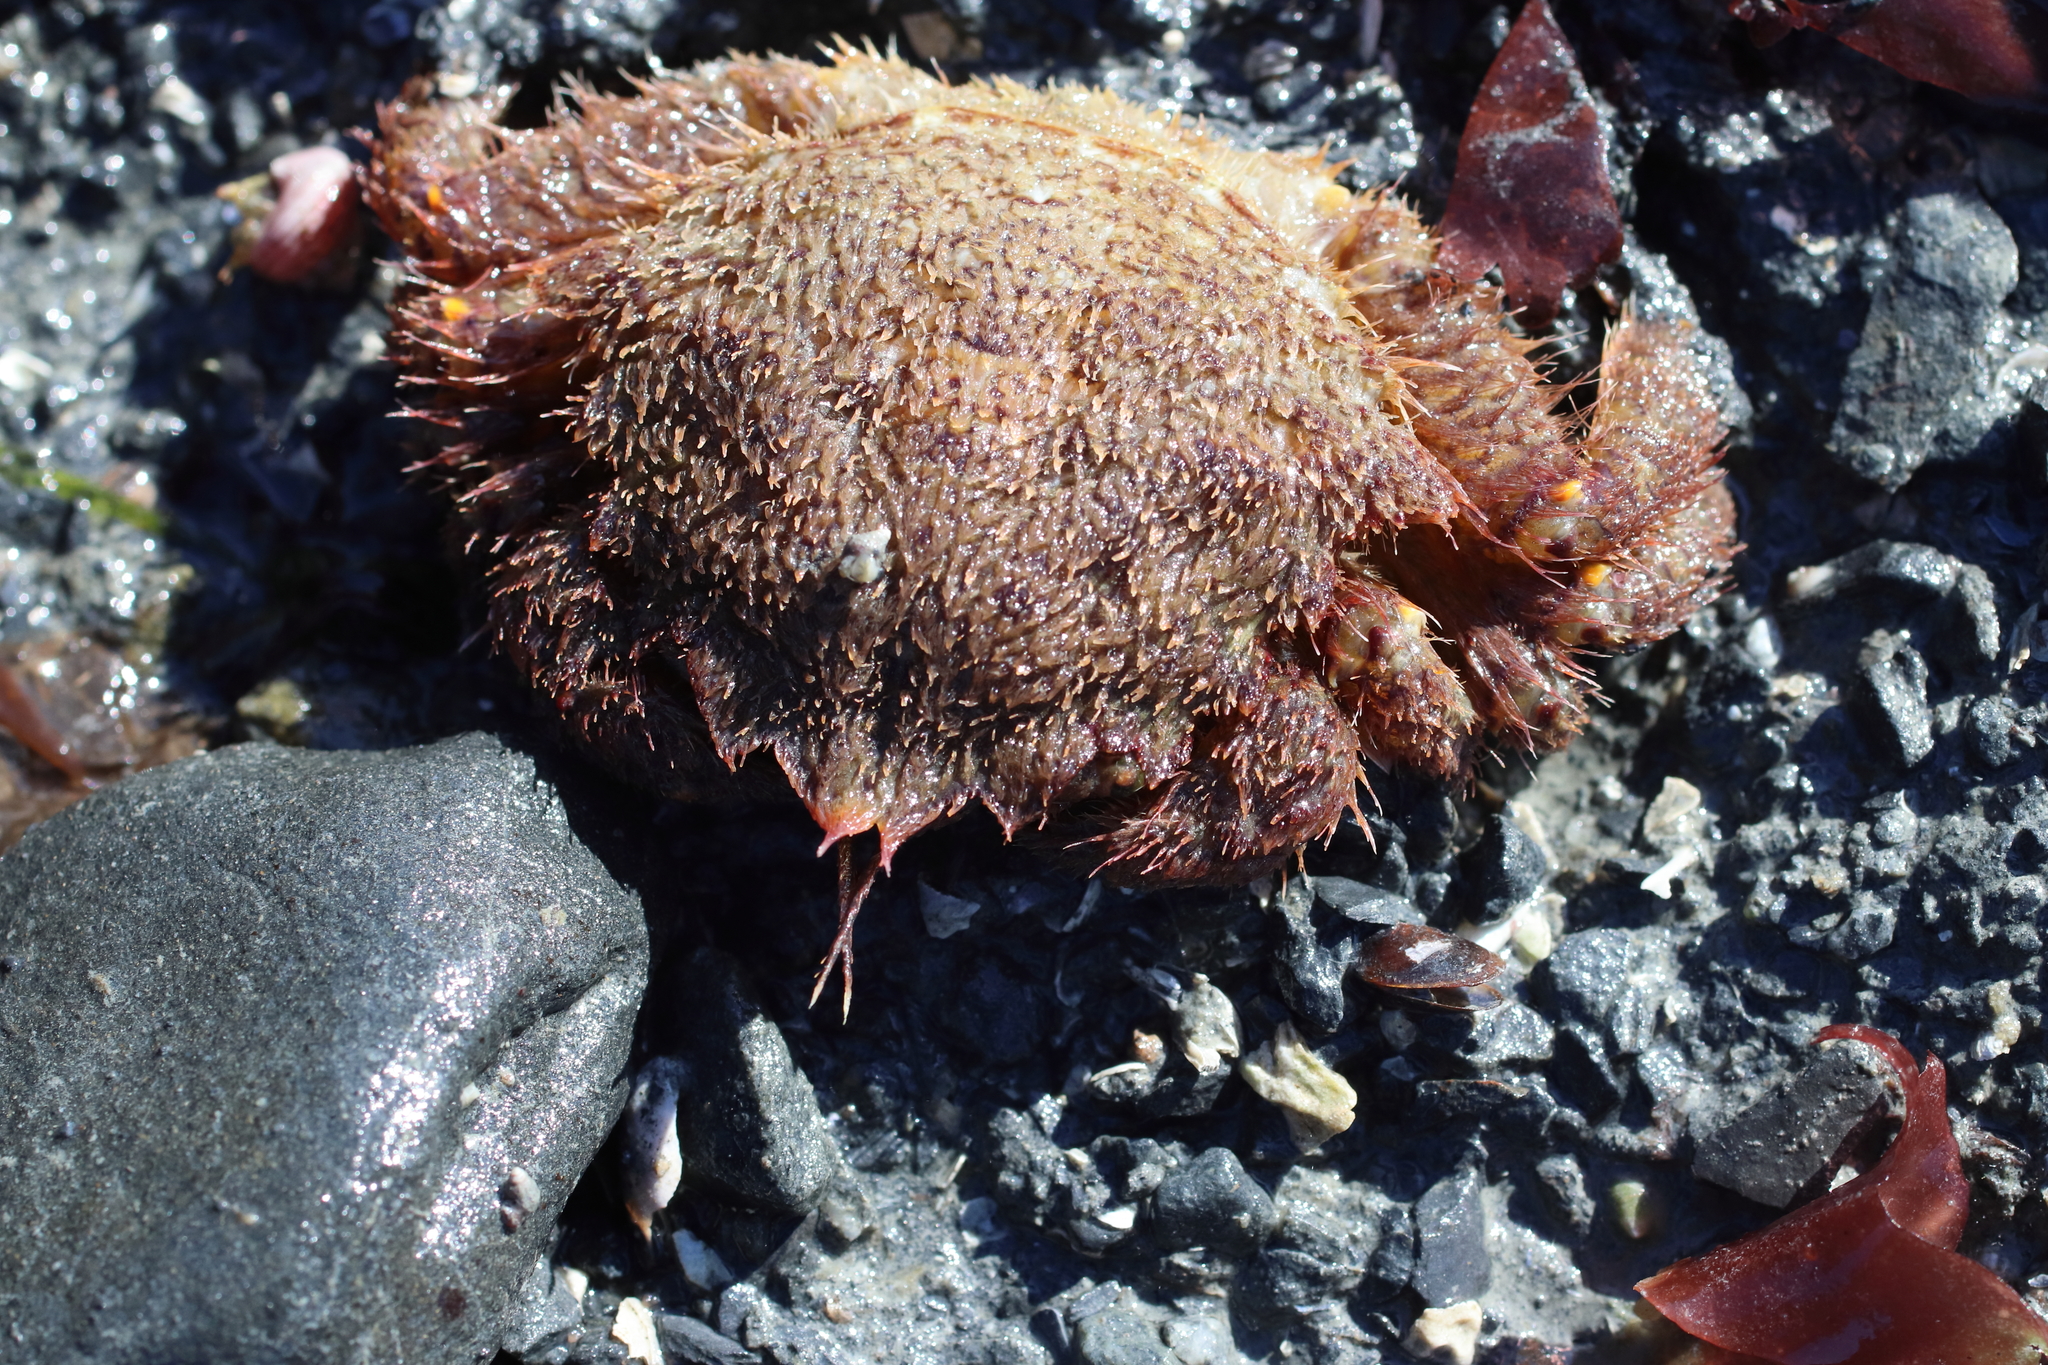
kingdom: Animalia
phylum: Arthropoda
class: Malacostraca
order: Decapoda
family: Cheiragonidae
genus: Telmessus
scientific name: Telmessus cheiragonus
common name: Helmet crab
